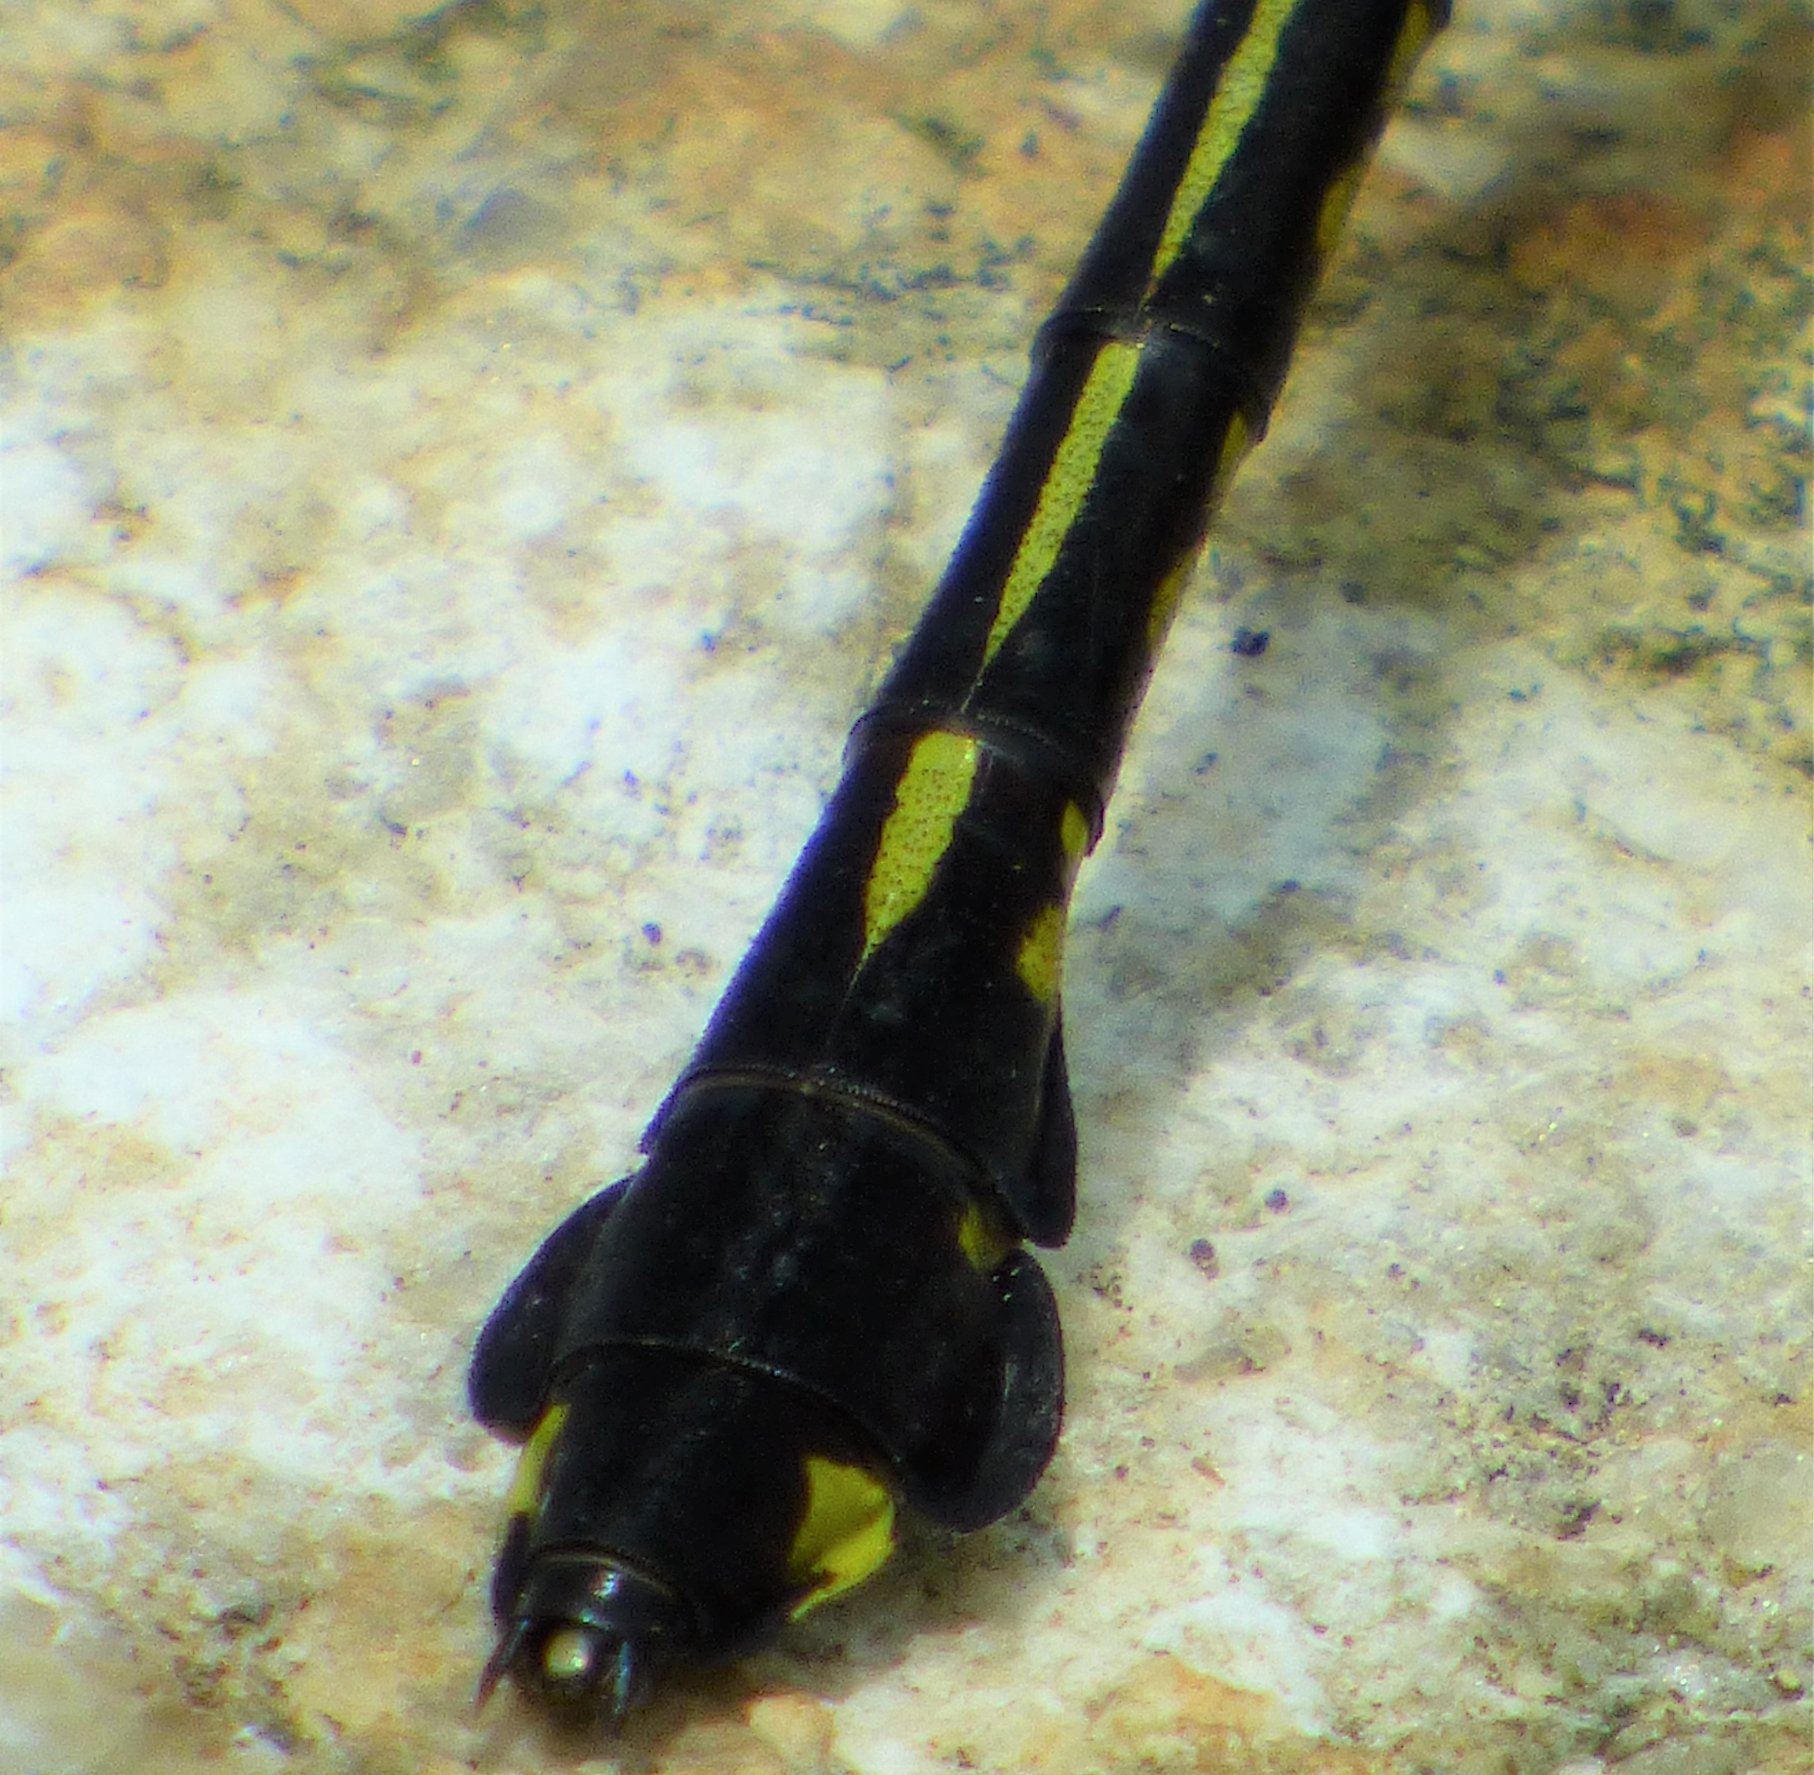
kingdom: Animalia
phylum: Arthropoda
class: Insecta
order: Odonata
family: Gomphidae
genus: Gomphurus
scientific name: Gomphurus dilatatus
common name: Blackwater clubtail
